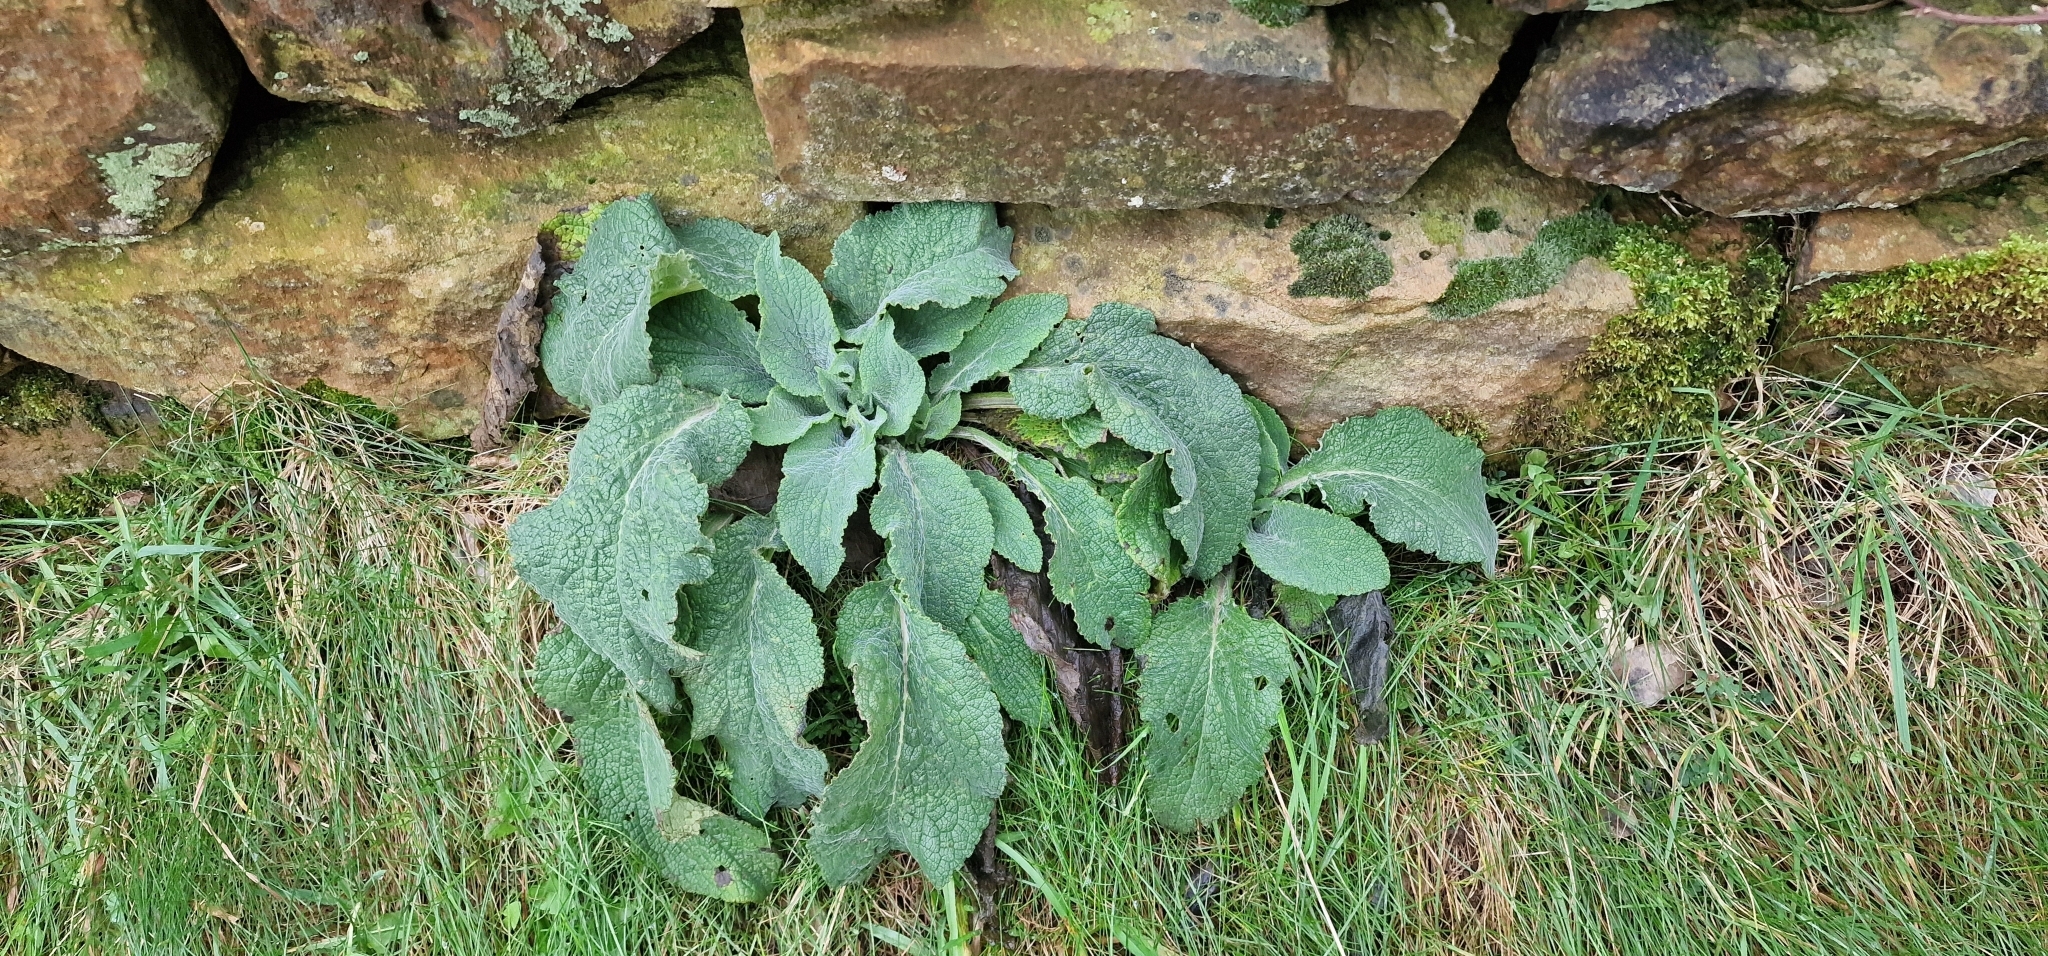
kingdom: Plantae
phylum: Tracheophyta
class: Magnoliopsida
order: Lamiales
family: Plantaginaceae
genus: Digitalis
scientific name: Digitalis purpurea
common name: Foxglove
